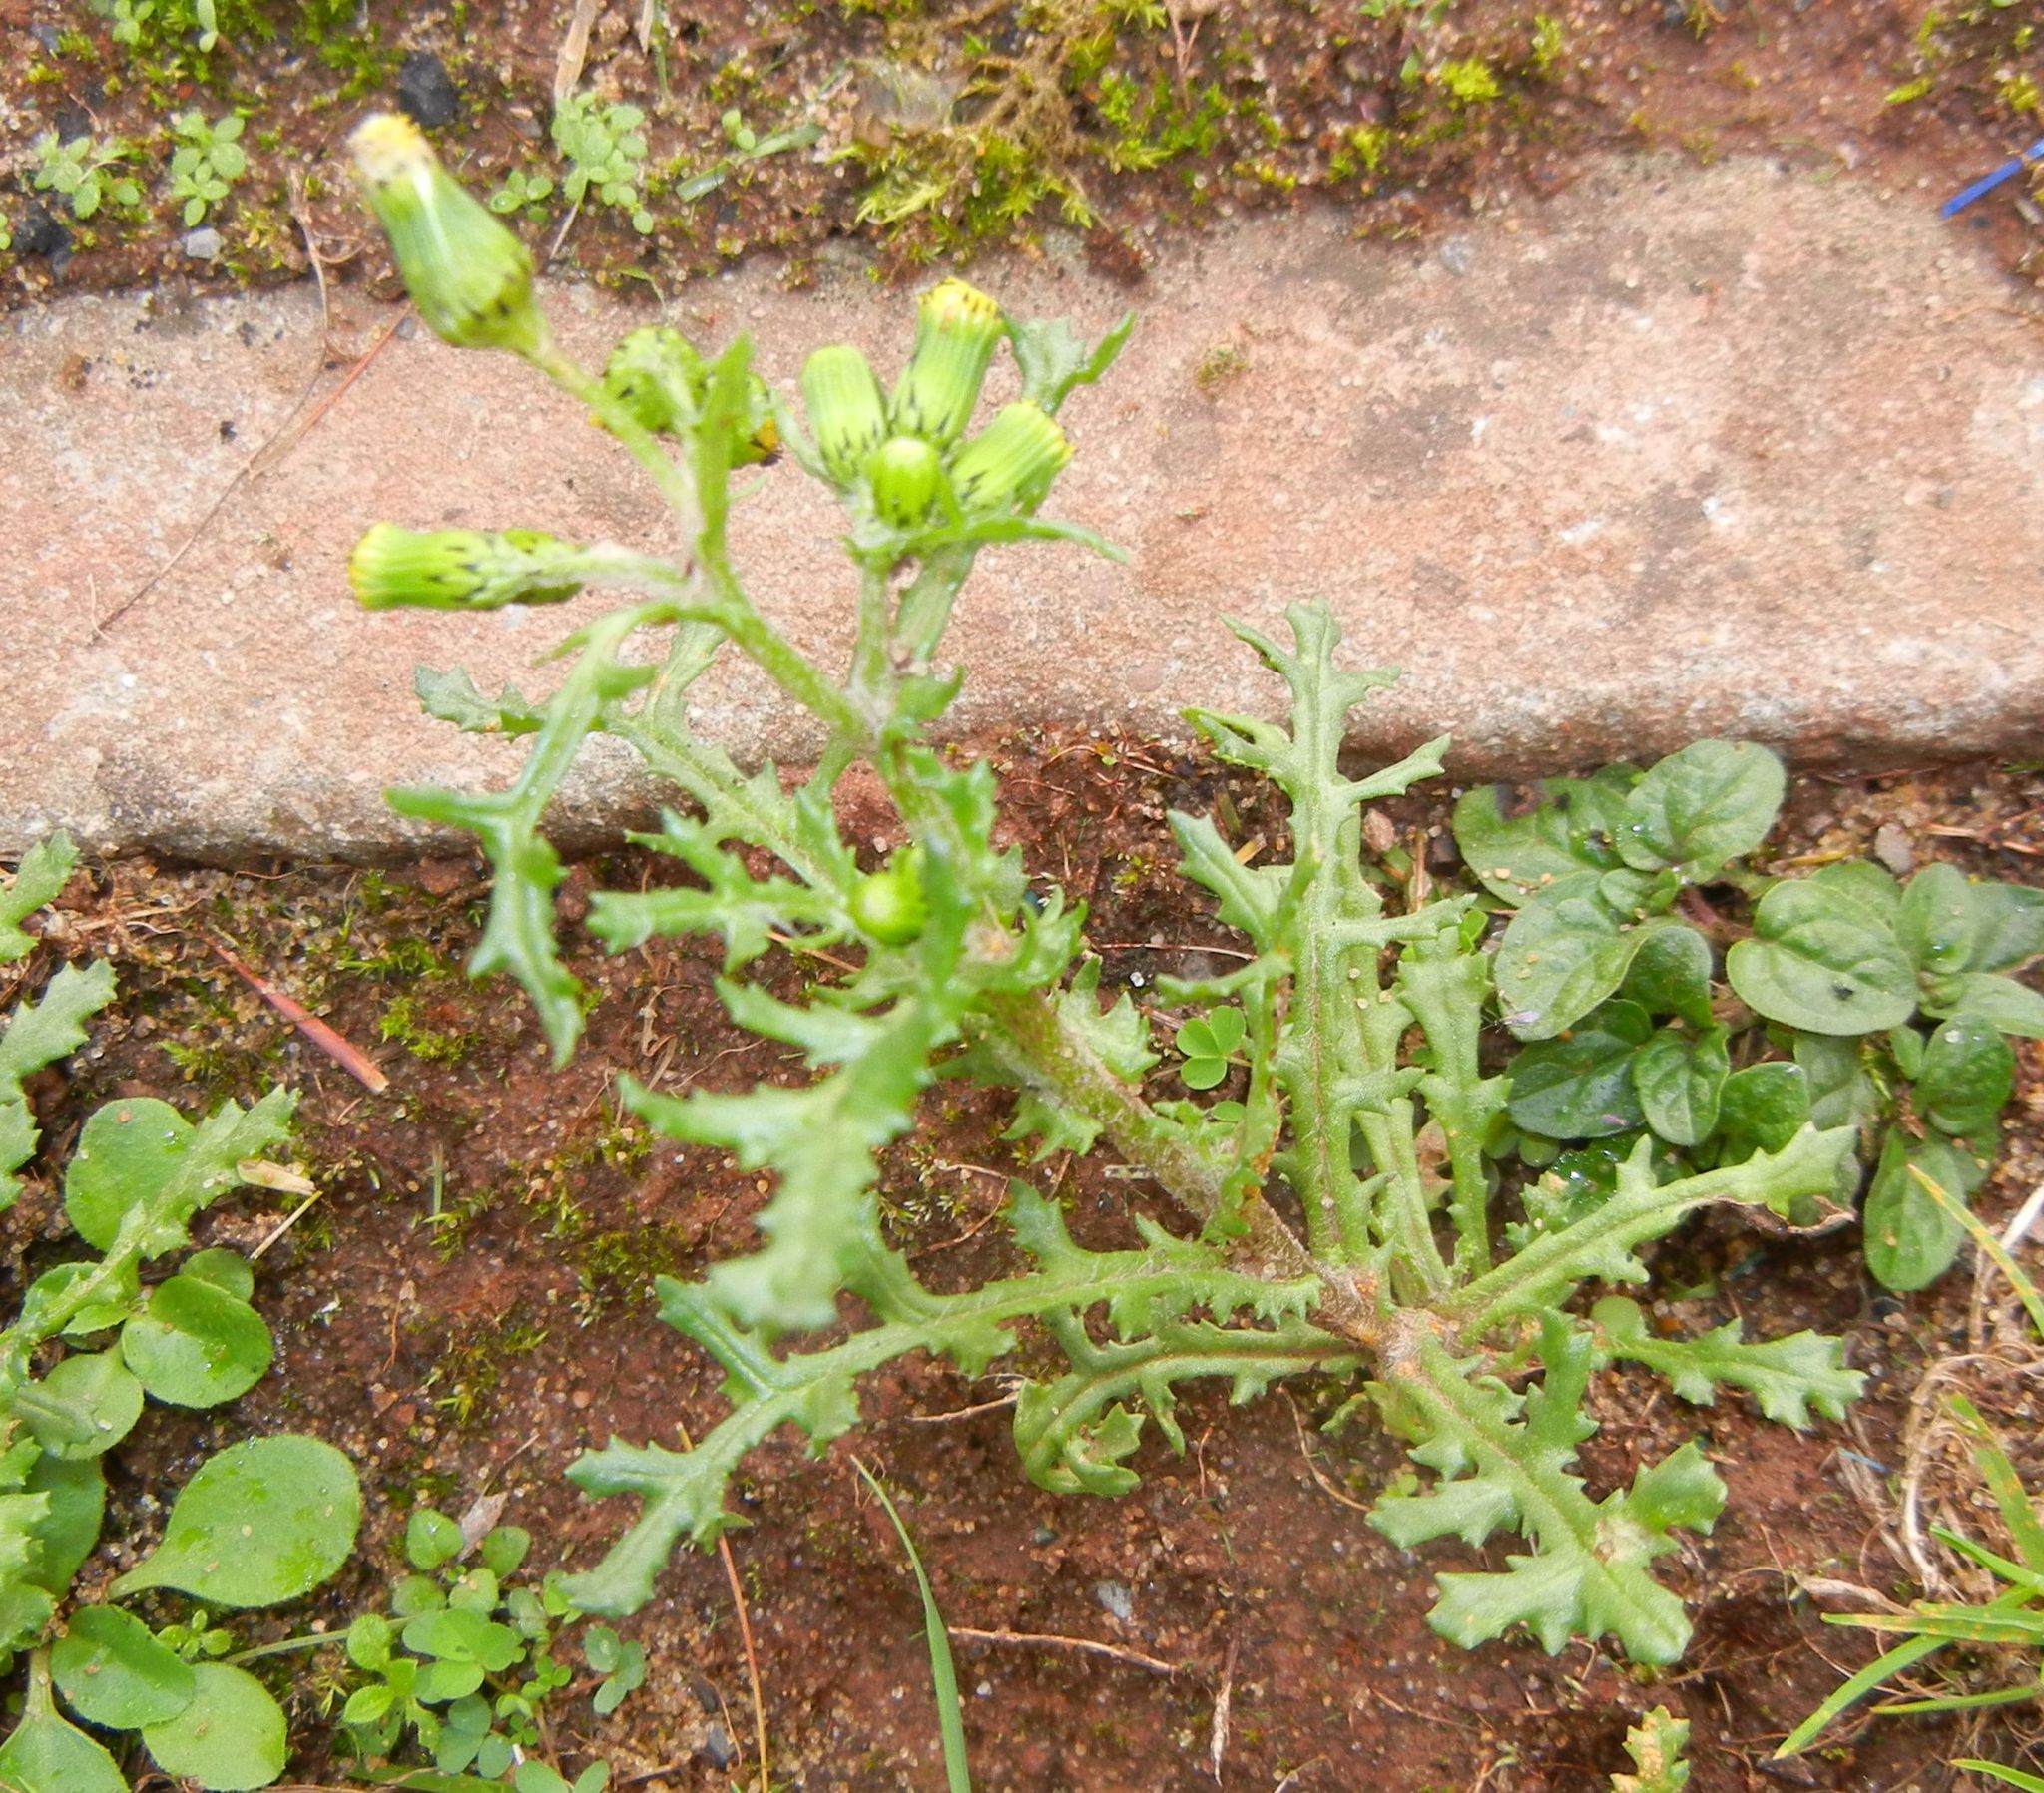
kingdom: Plantae
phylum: Tracheophyta
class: Magnoliopsida
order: Asterales
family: Asteraceae
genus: Senecio
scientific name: Senecio vulgaris
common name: Old-man-in-the-spring
